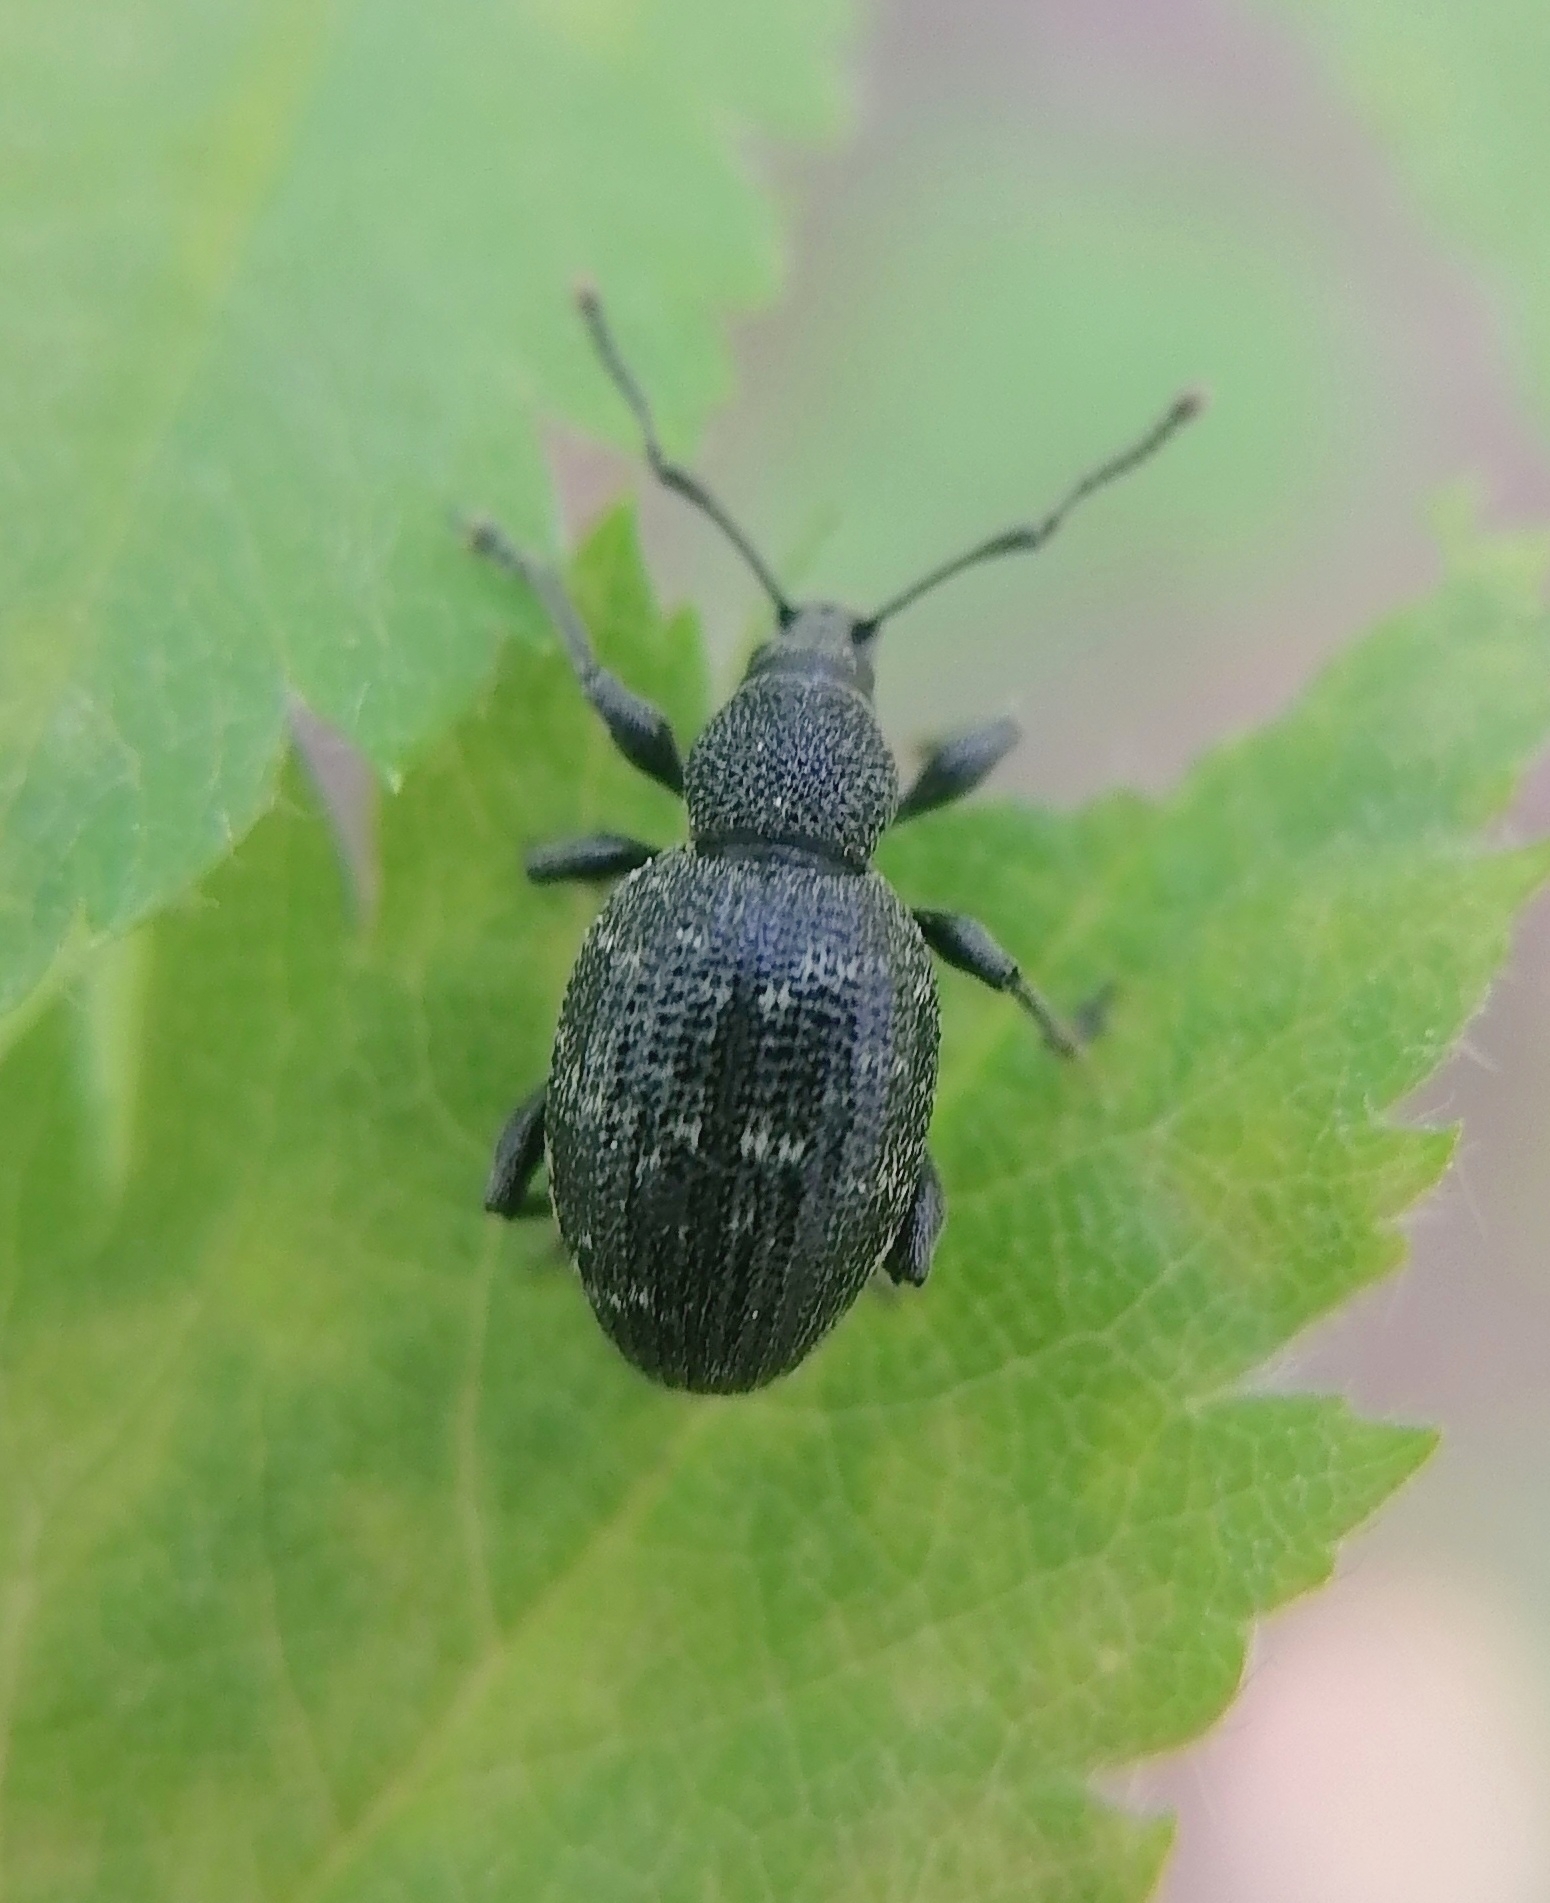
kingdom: Animalia
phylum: Arthropoda
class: Insecta
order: Coleoptera
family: Curculionidae
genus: Otiorhynchus
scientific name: Otiorhynchus tristis
